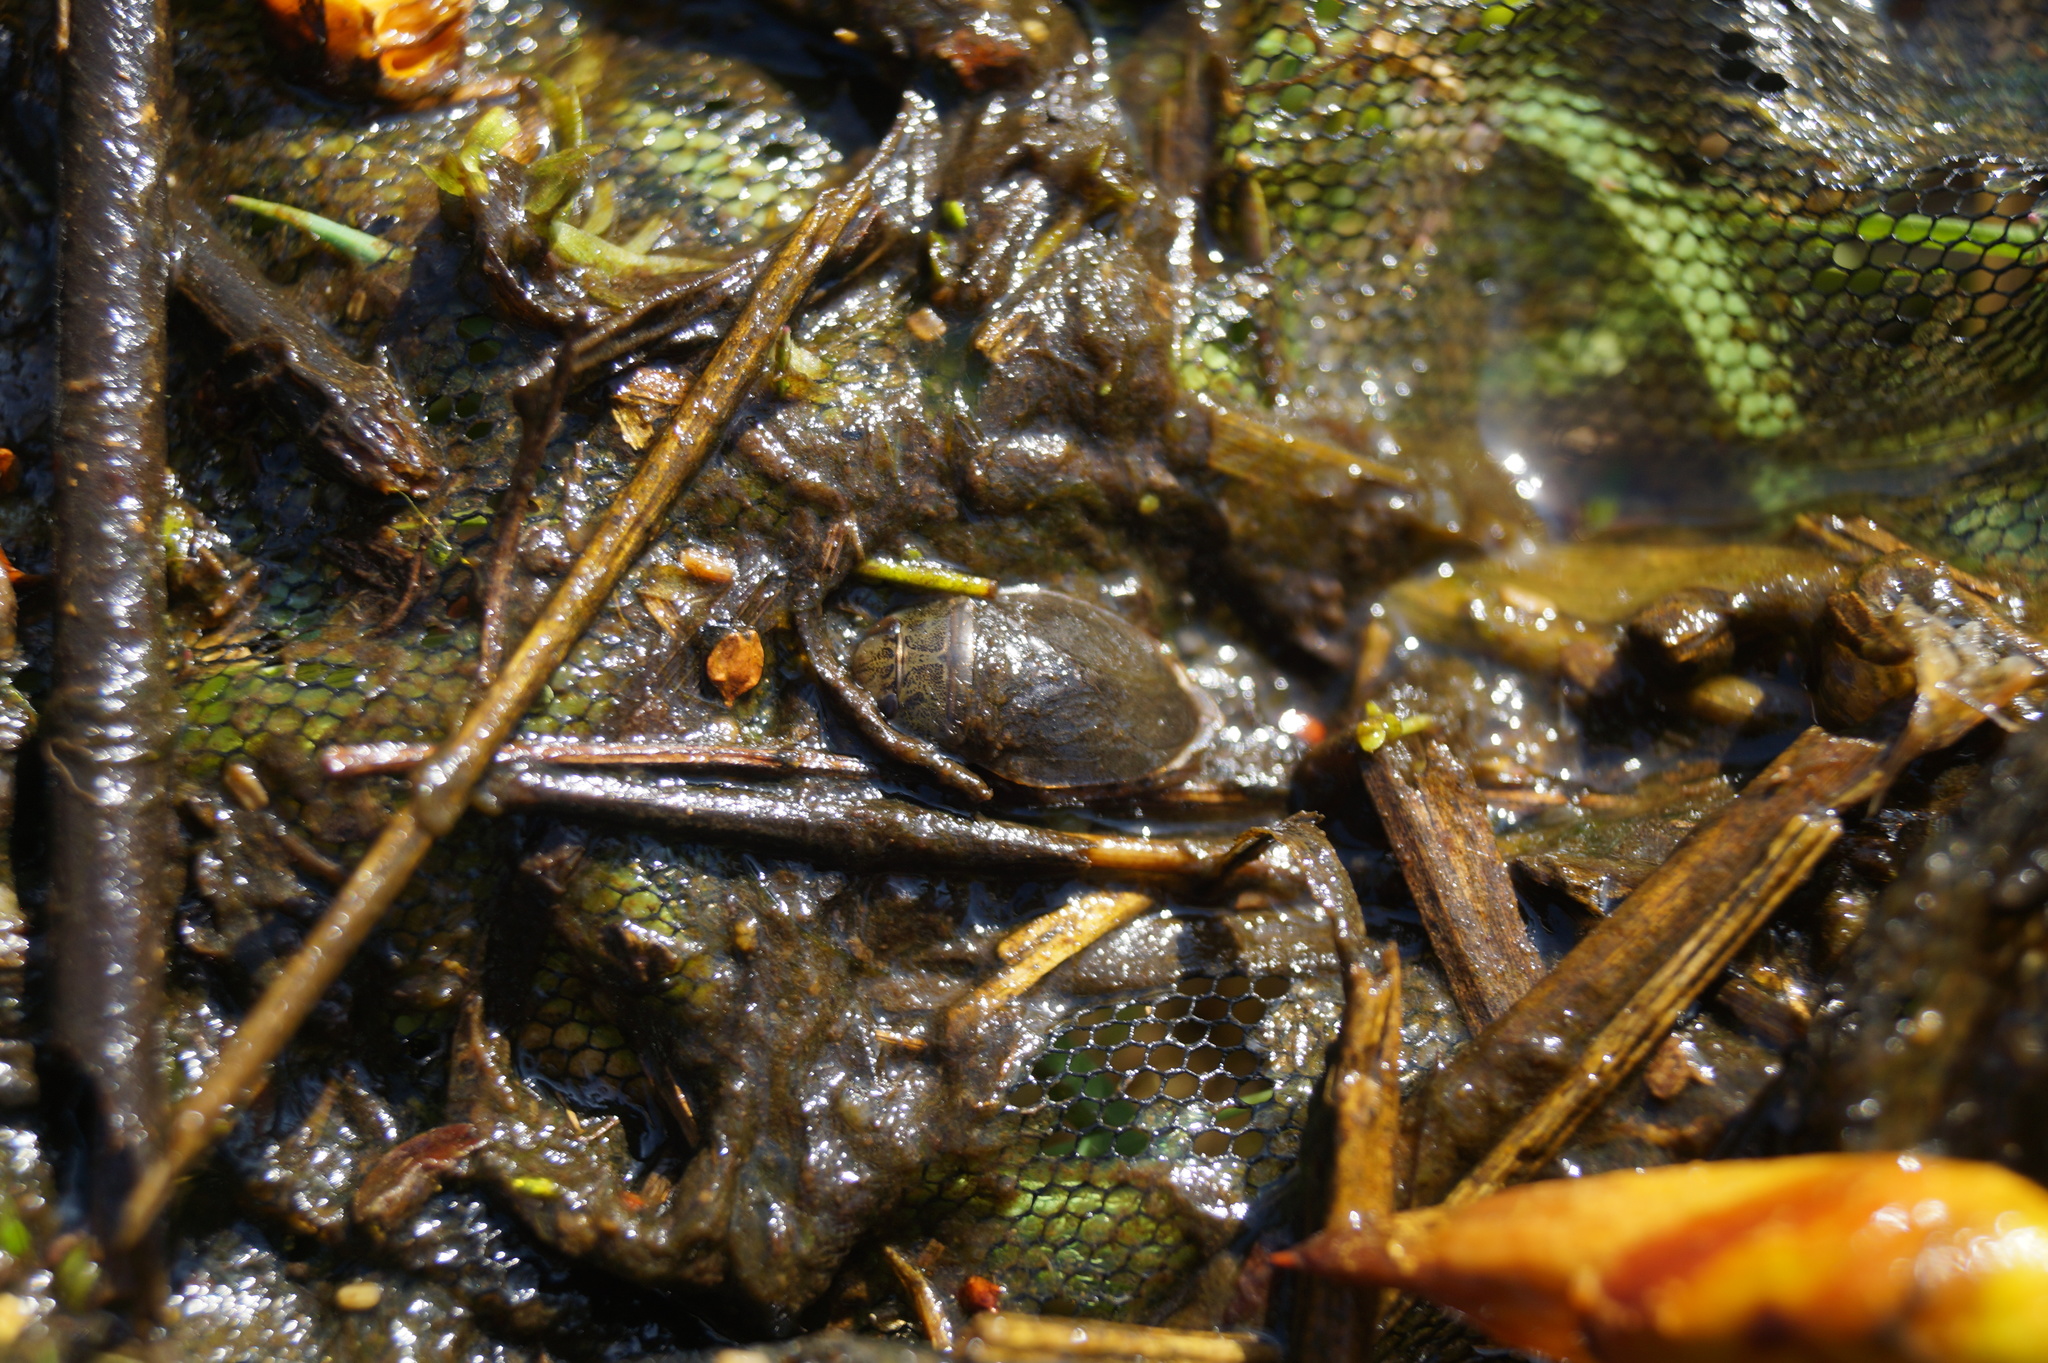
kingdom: Animalia
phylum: Arthropoda
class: Insecta
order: Hemiptera
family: Naucoridae
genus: Ilyocoris
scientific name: Ilyocoris cimicoides
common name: Saucer bugs
